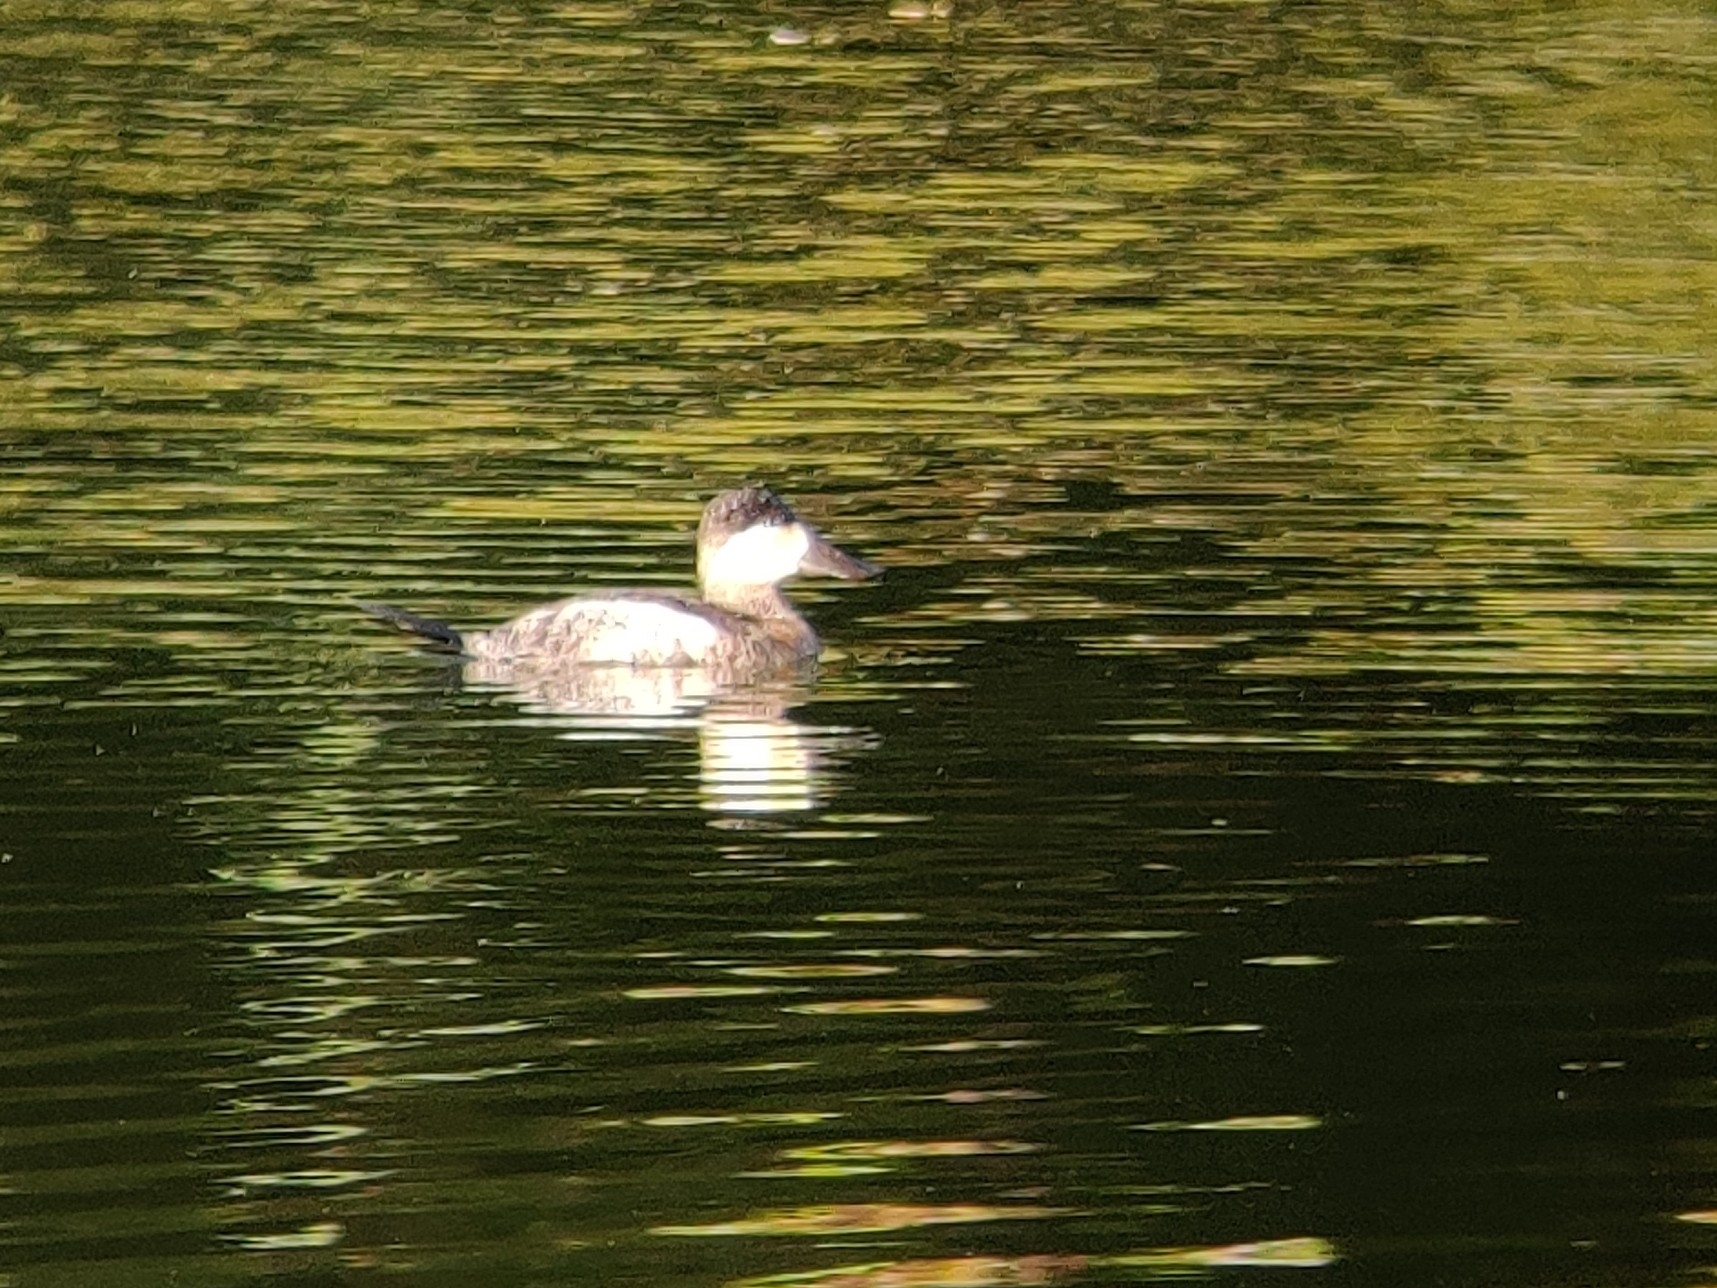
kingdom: Animalia
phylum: Chordata
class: Aves
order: Anseriformes
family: Anatidae
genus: Oxyura
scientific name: Oxyura jamaicensis
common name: Ruddy duck
